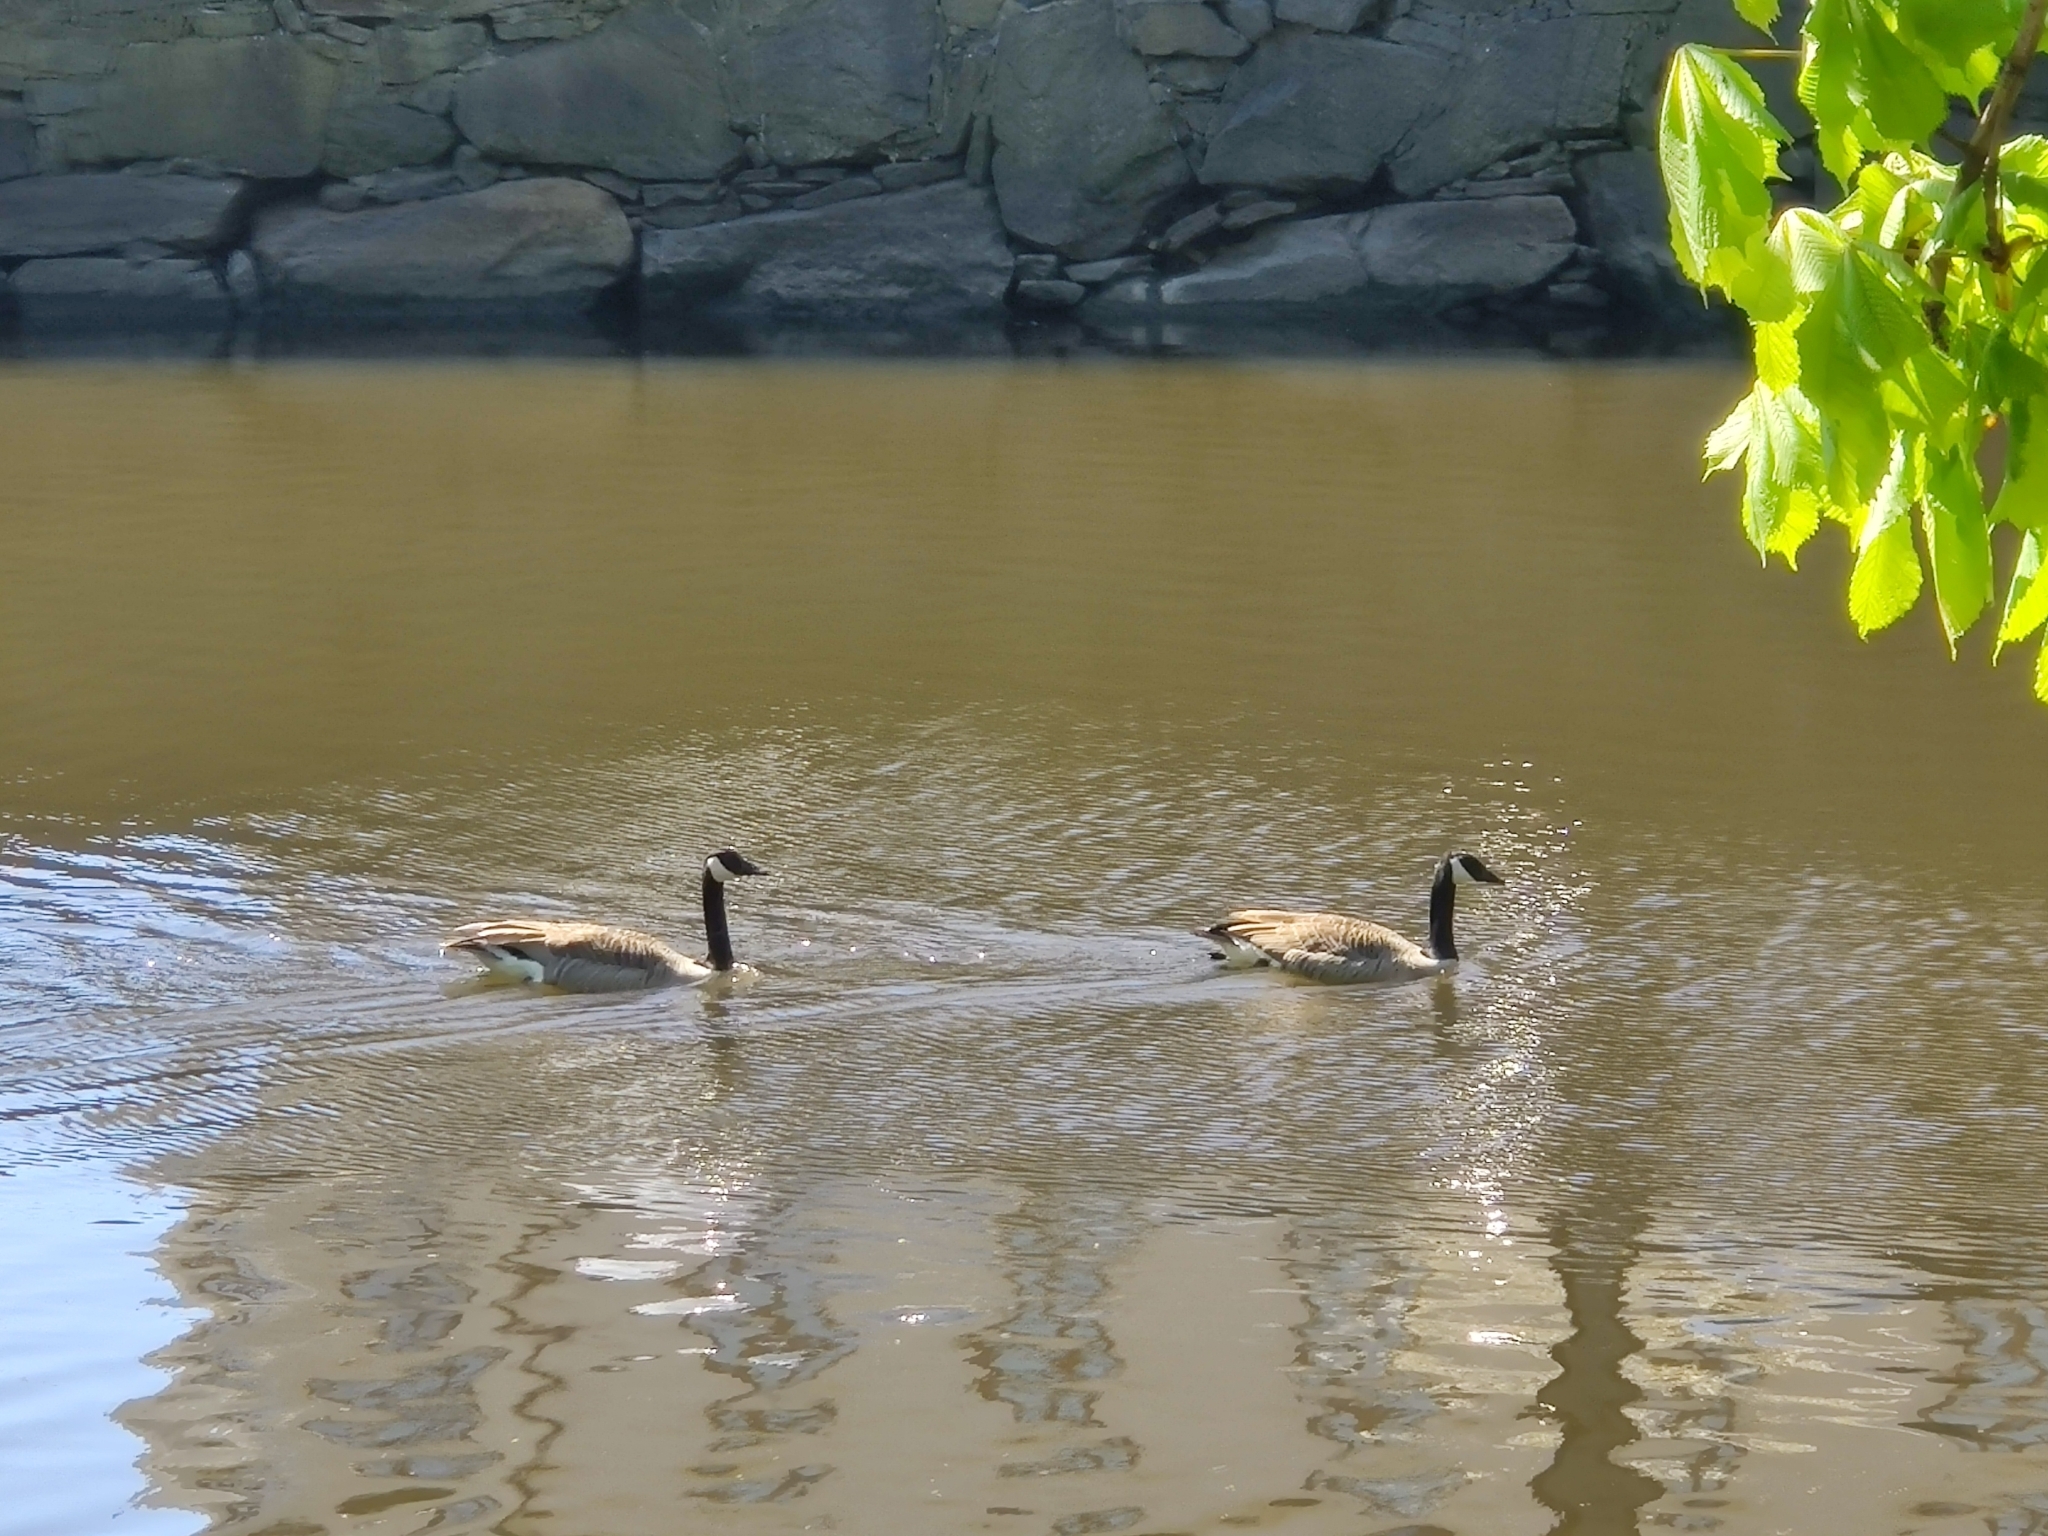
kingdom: Animalia
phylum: Chordata
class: Aves
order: Anseriformes
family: Anatidae
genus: Branta
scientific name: Branta canadensis
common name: Canada goose
